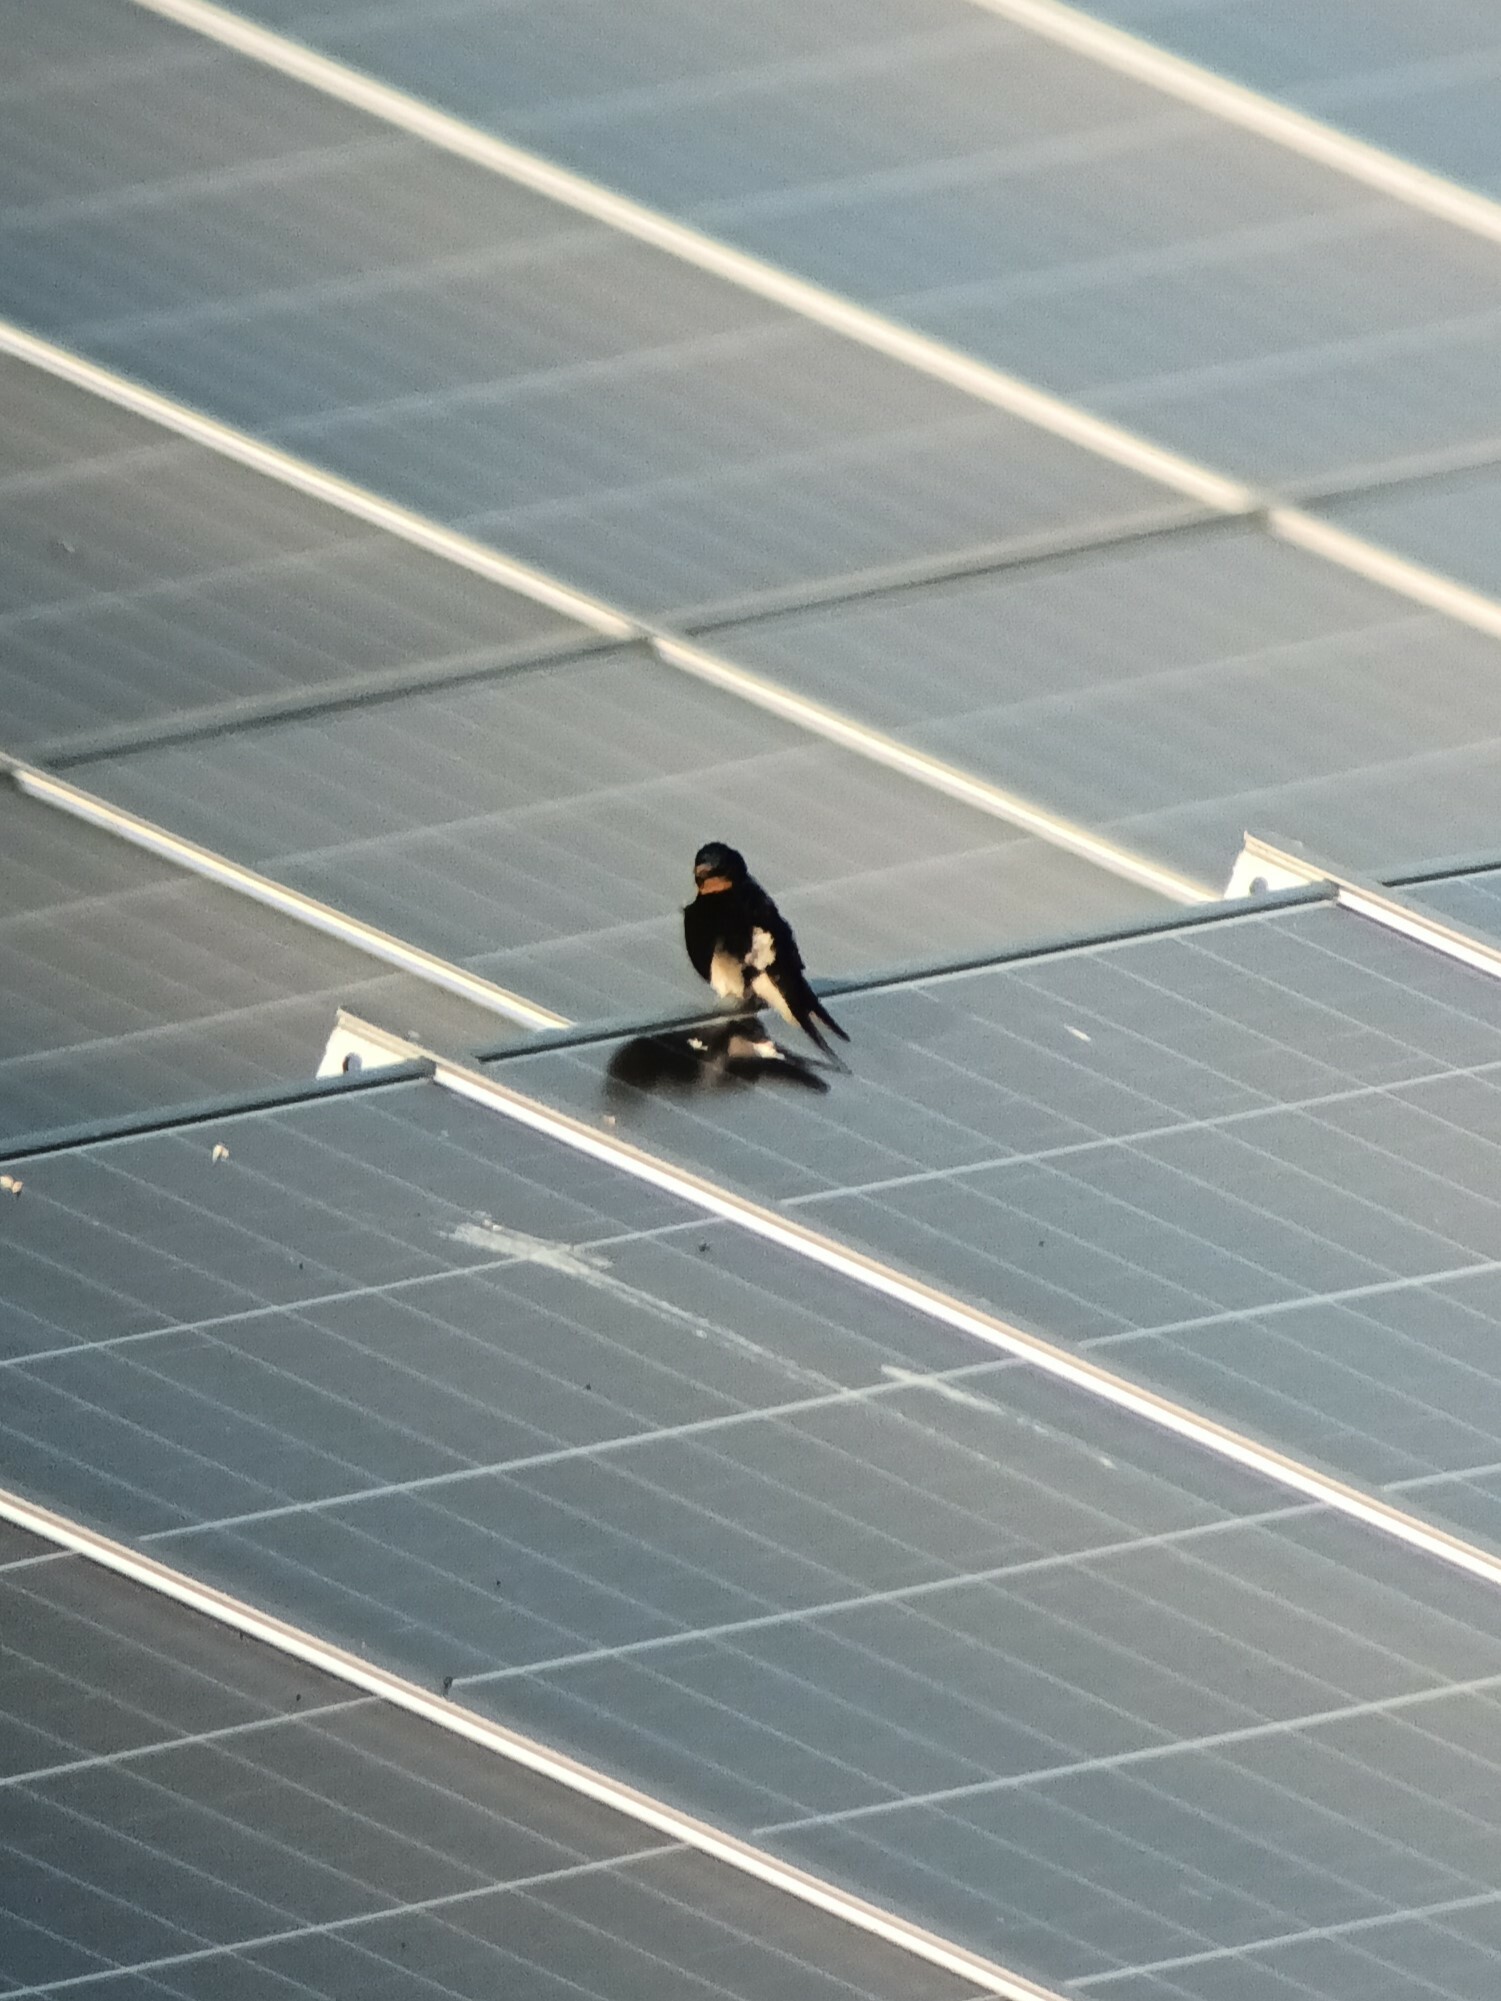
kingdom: Animalia
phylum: Chordata
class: Aves
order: Passeriformes
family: Hirundinidae
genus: Hirundo
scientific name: Hirundo rustica
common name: Barn swallow
